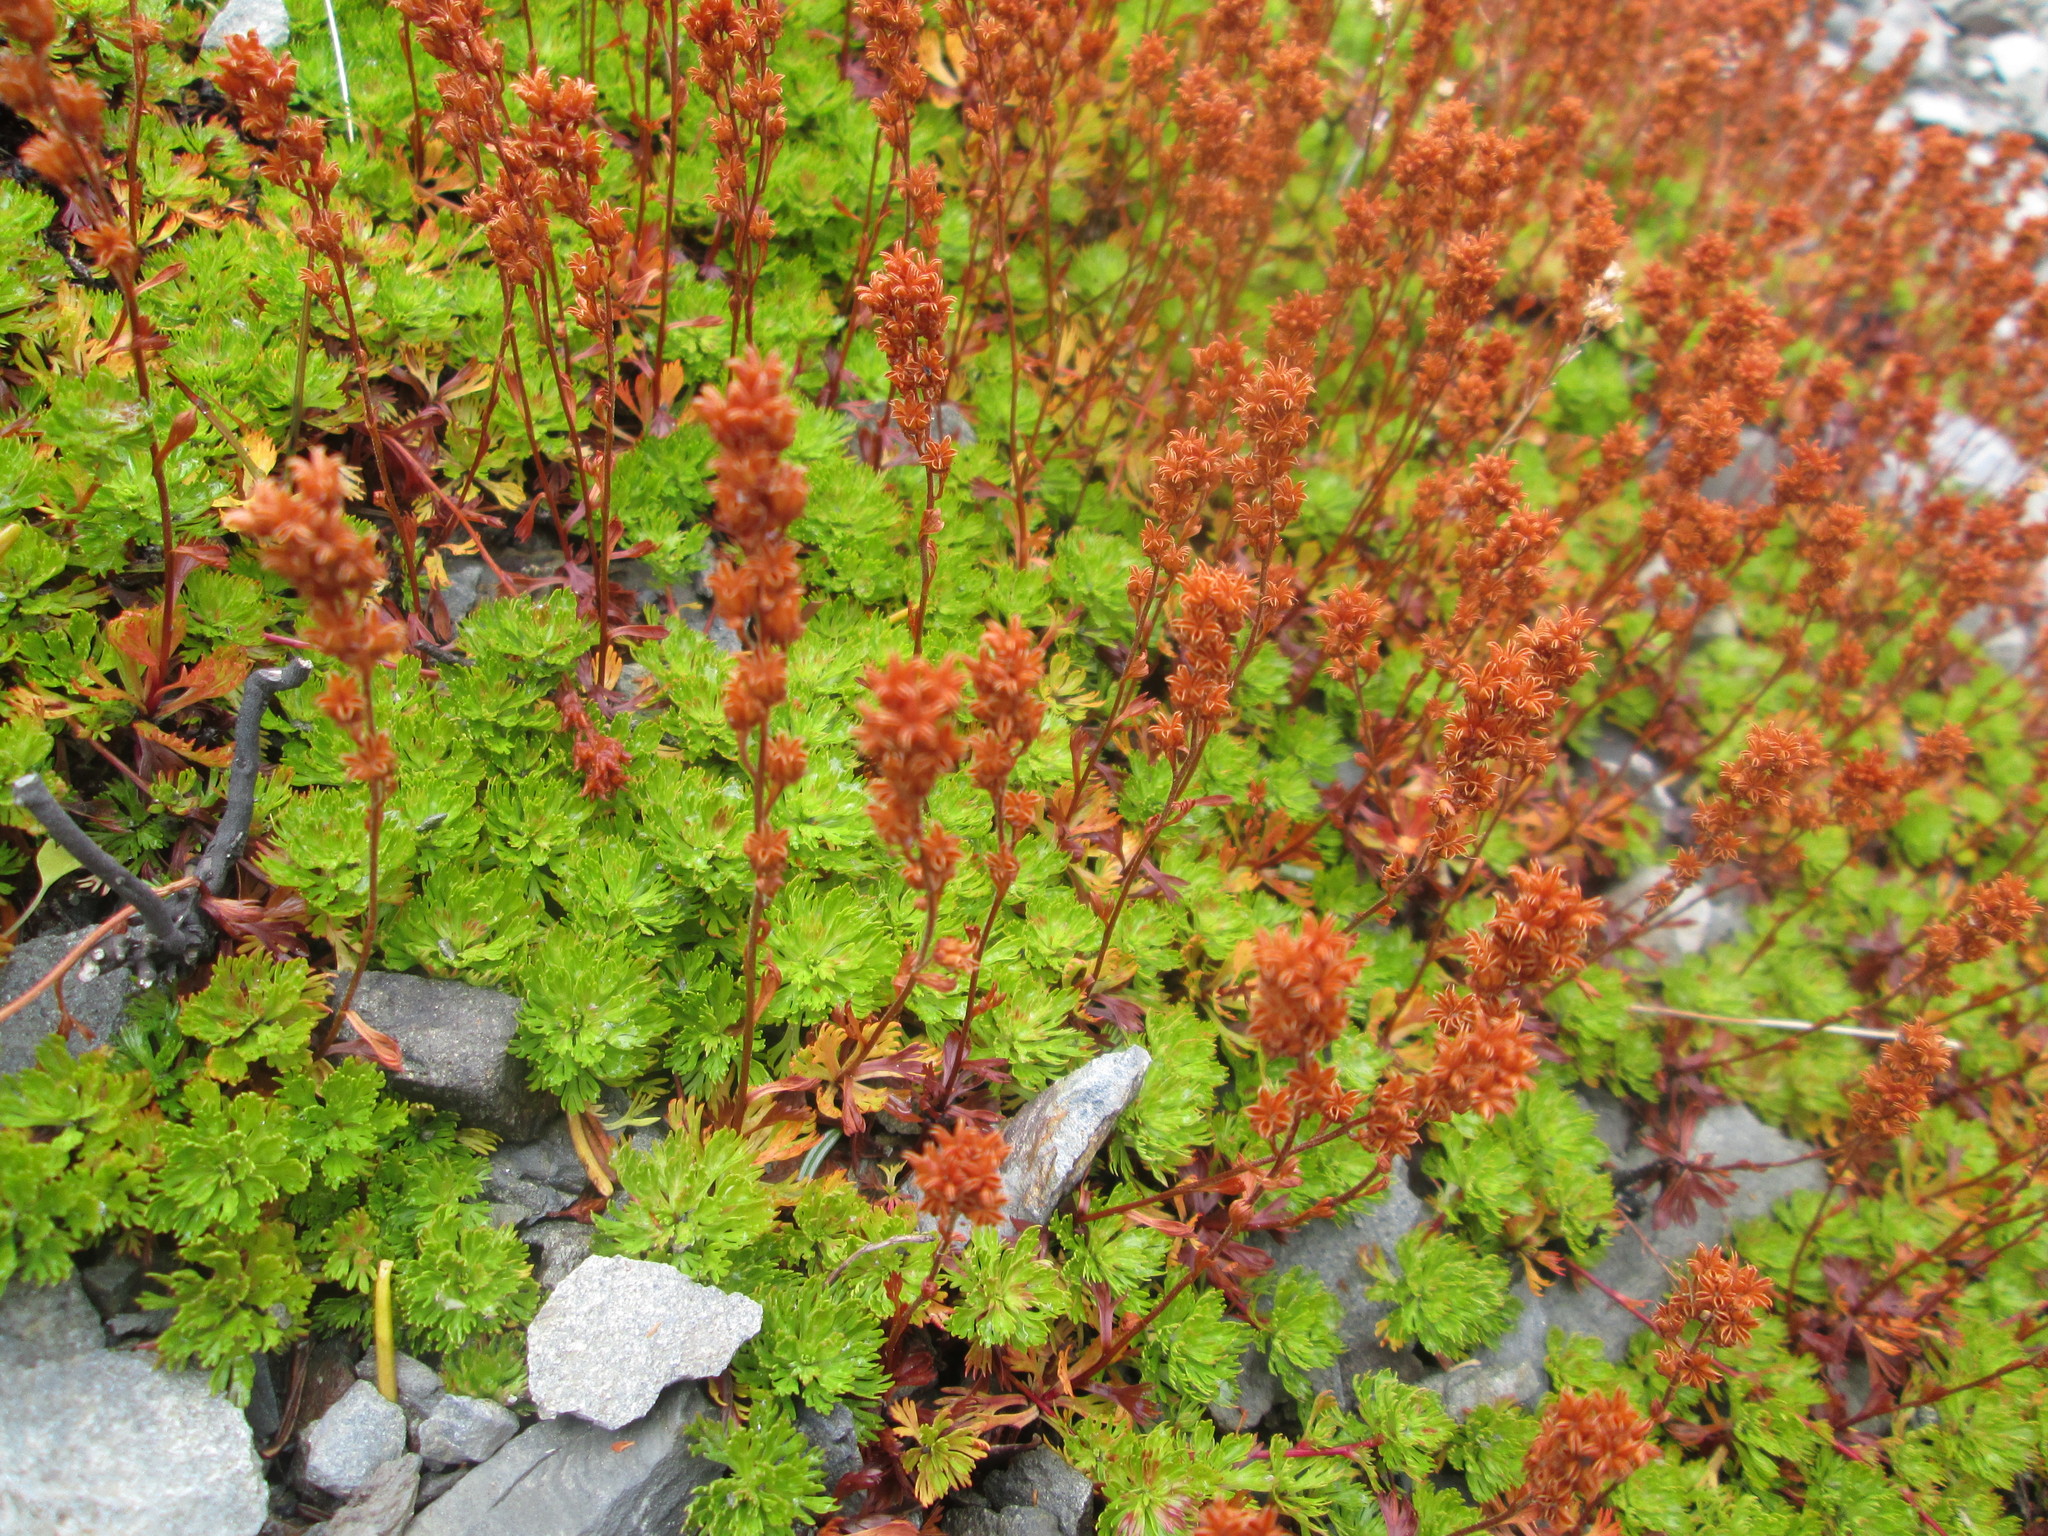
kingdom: Plantae
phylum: Tracheophyta
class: Magnoliopsida
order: Rosales
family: Rosaceae
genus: Luetkea
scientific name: Luetkea pectinata
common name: Partridgefoot
